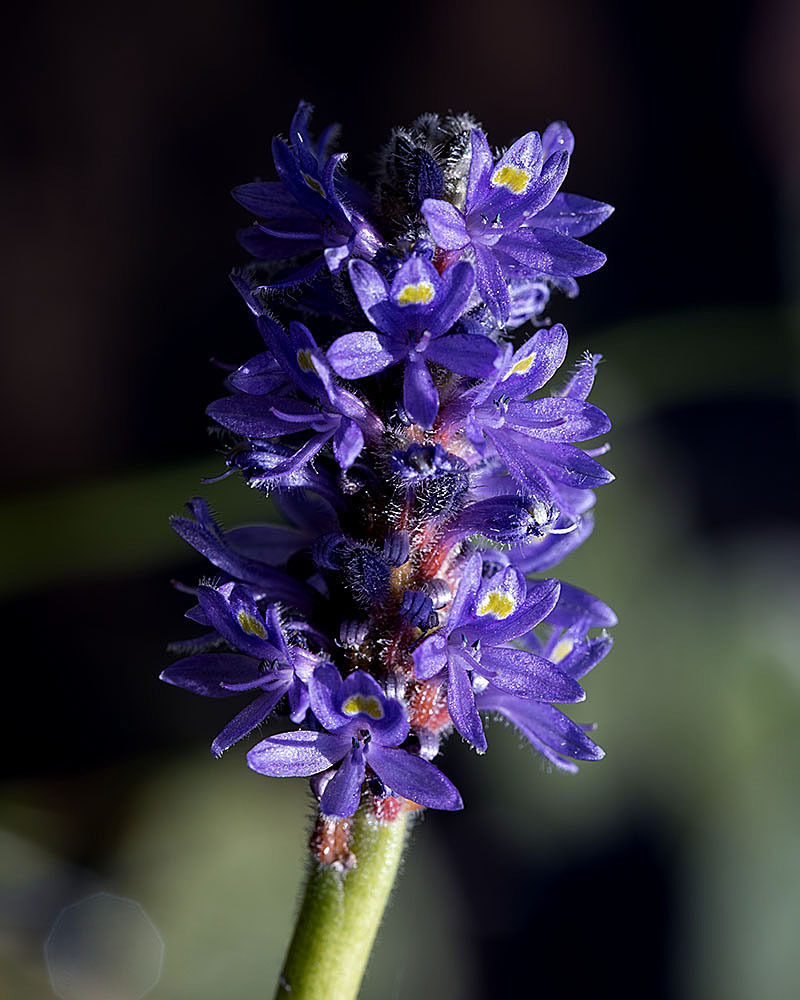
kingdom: Plantae
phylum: Tracheophyta
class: Liliopsida
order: Commelinales
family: Pontederiaceae
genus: Pontederia
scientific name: Pontederia cordata
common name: Pickerelweed
